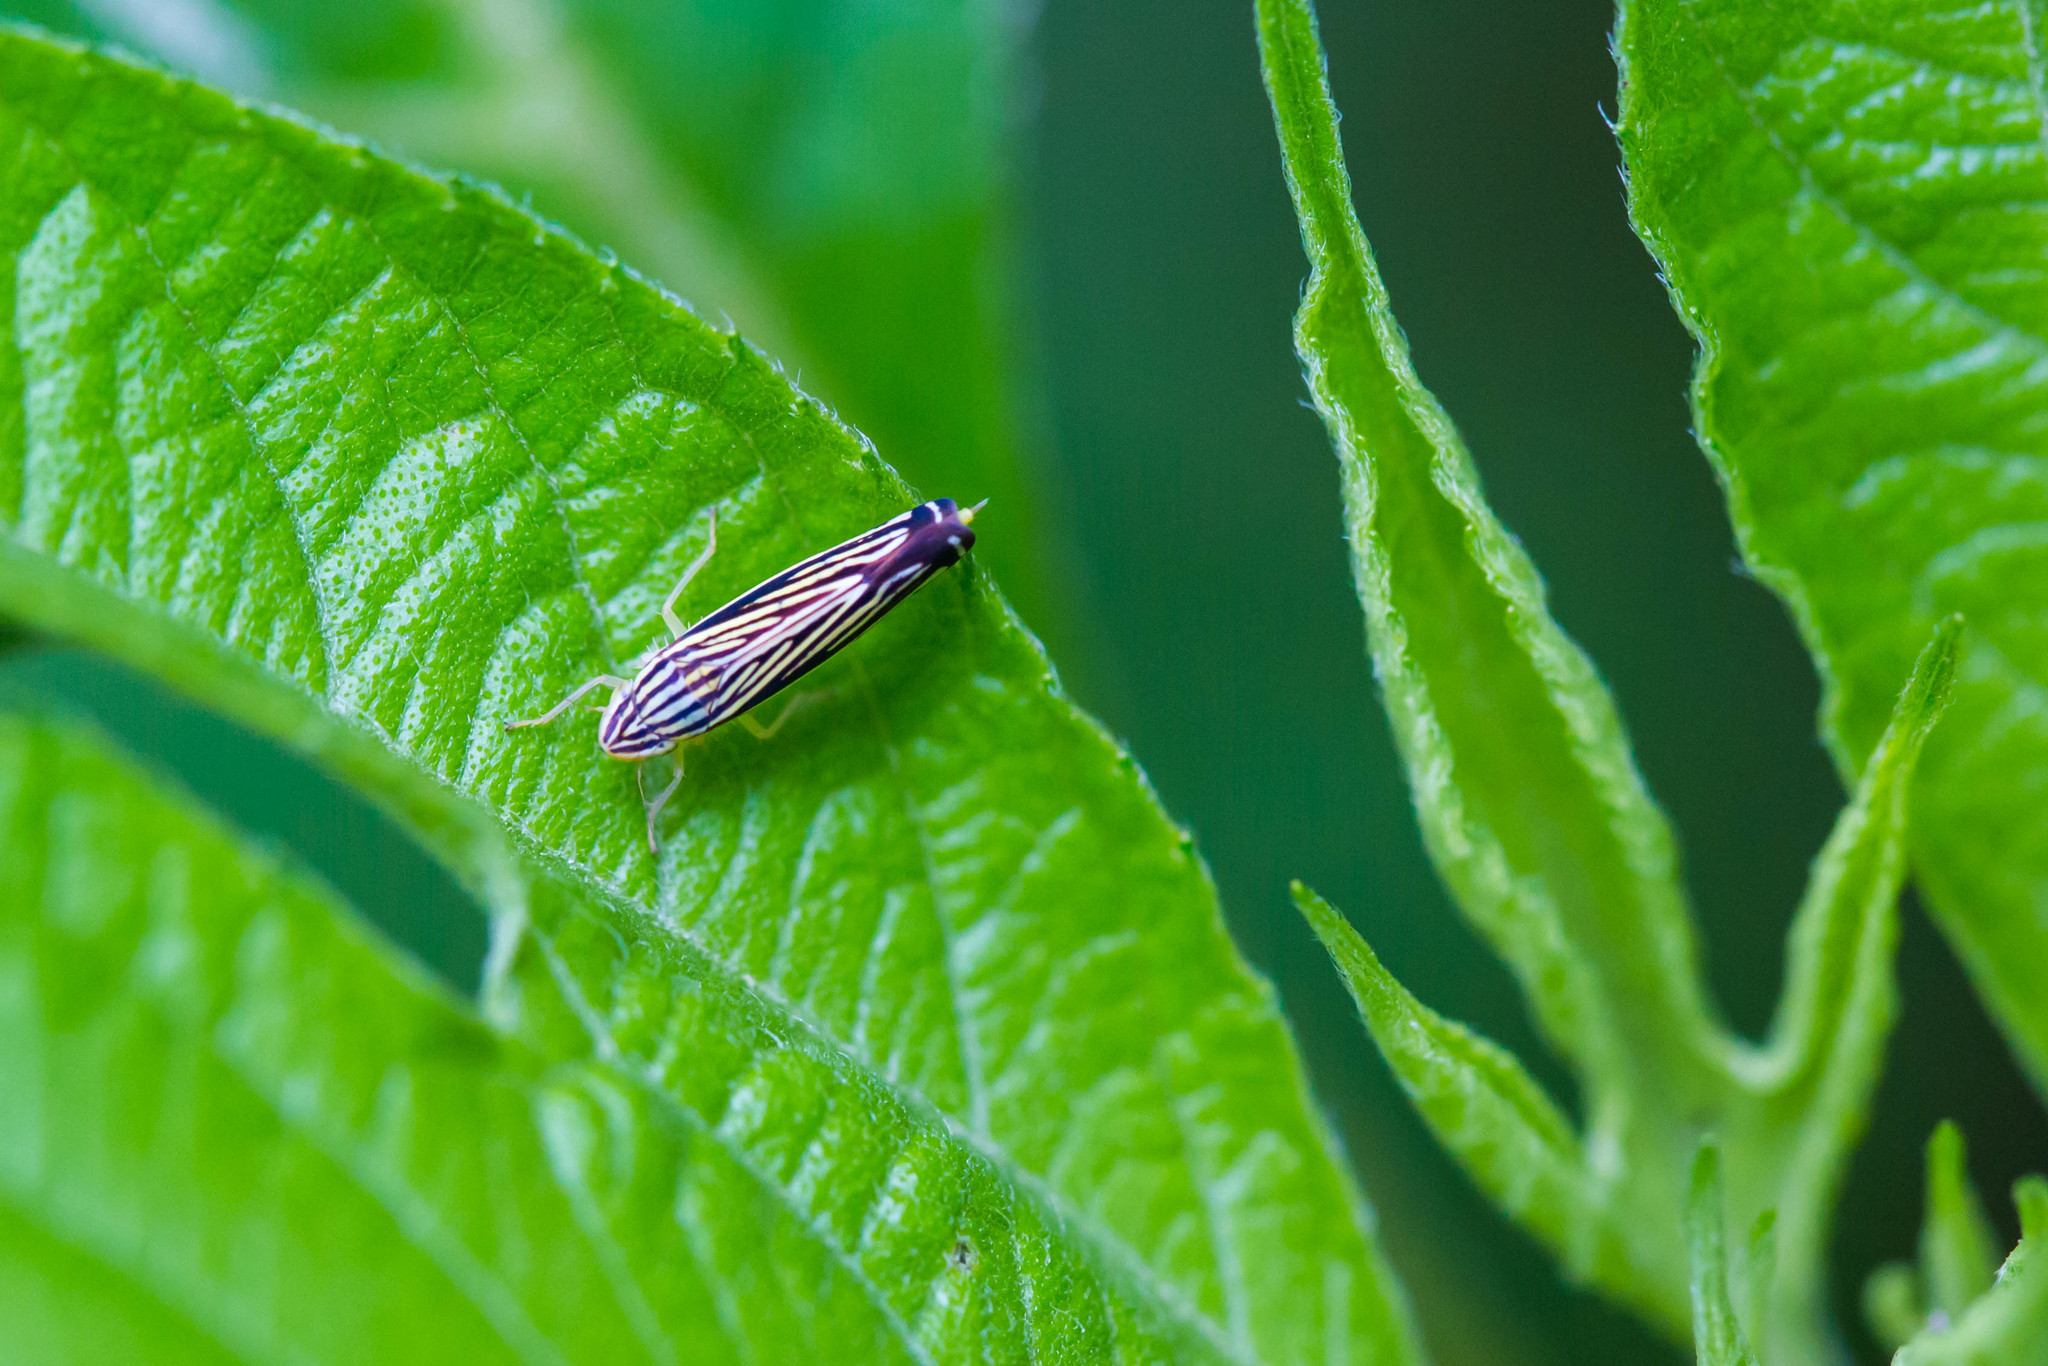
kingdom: Animalia
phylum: Arthropoda
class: Insecta
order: Hemiptera
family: Cicadellidae
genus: Sibovia
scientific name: Sibovia occatoria
